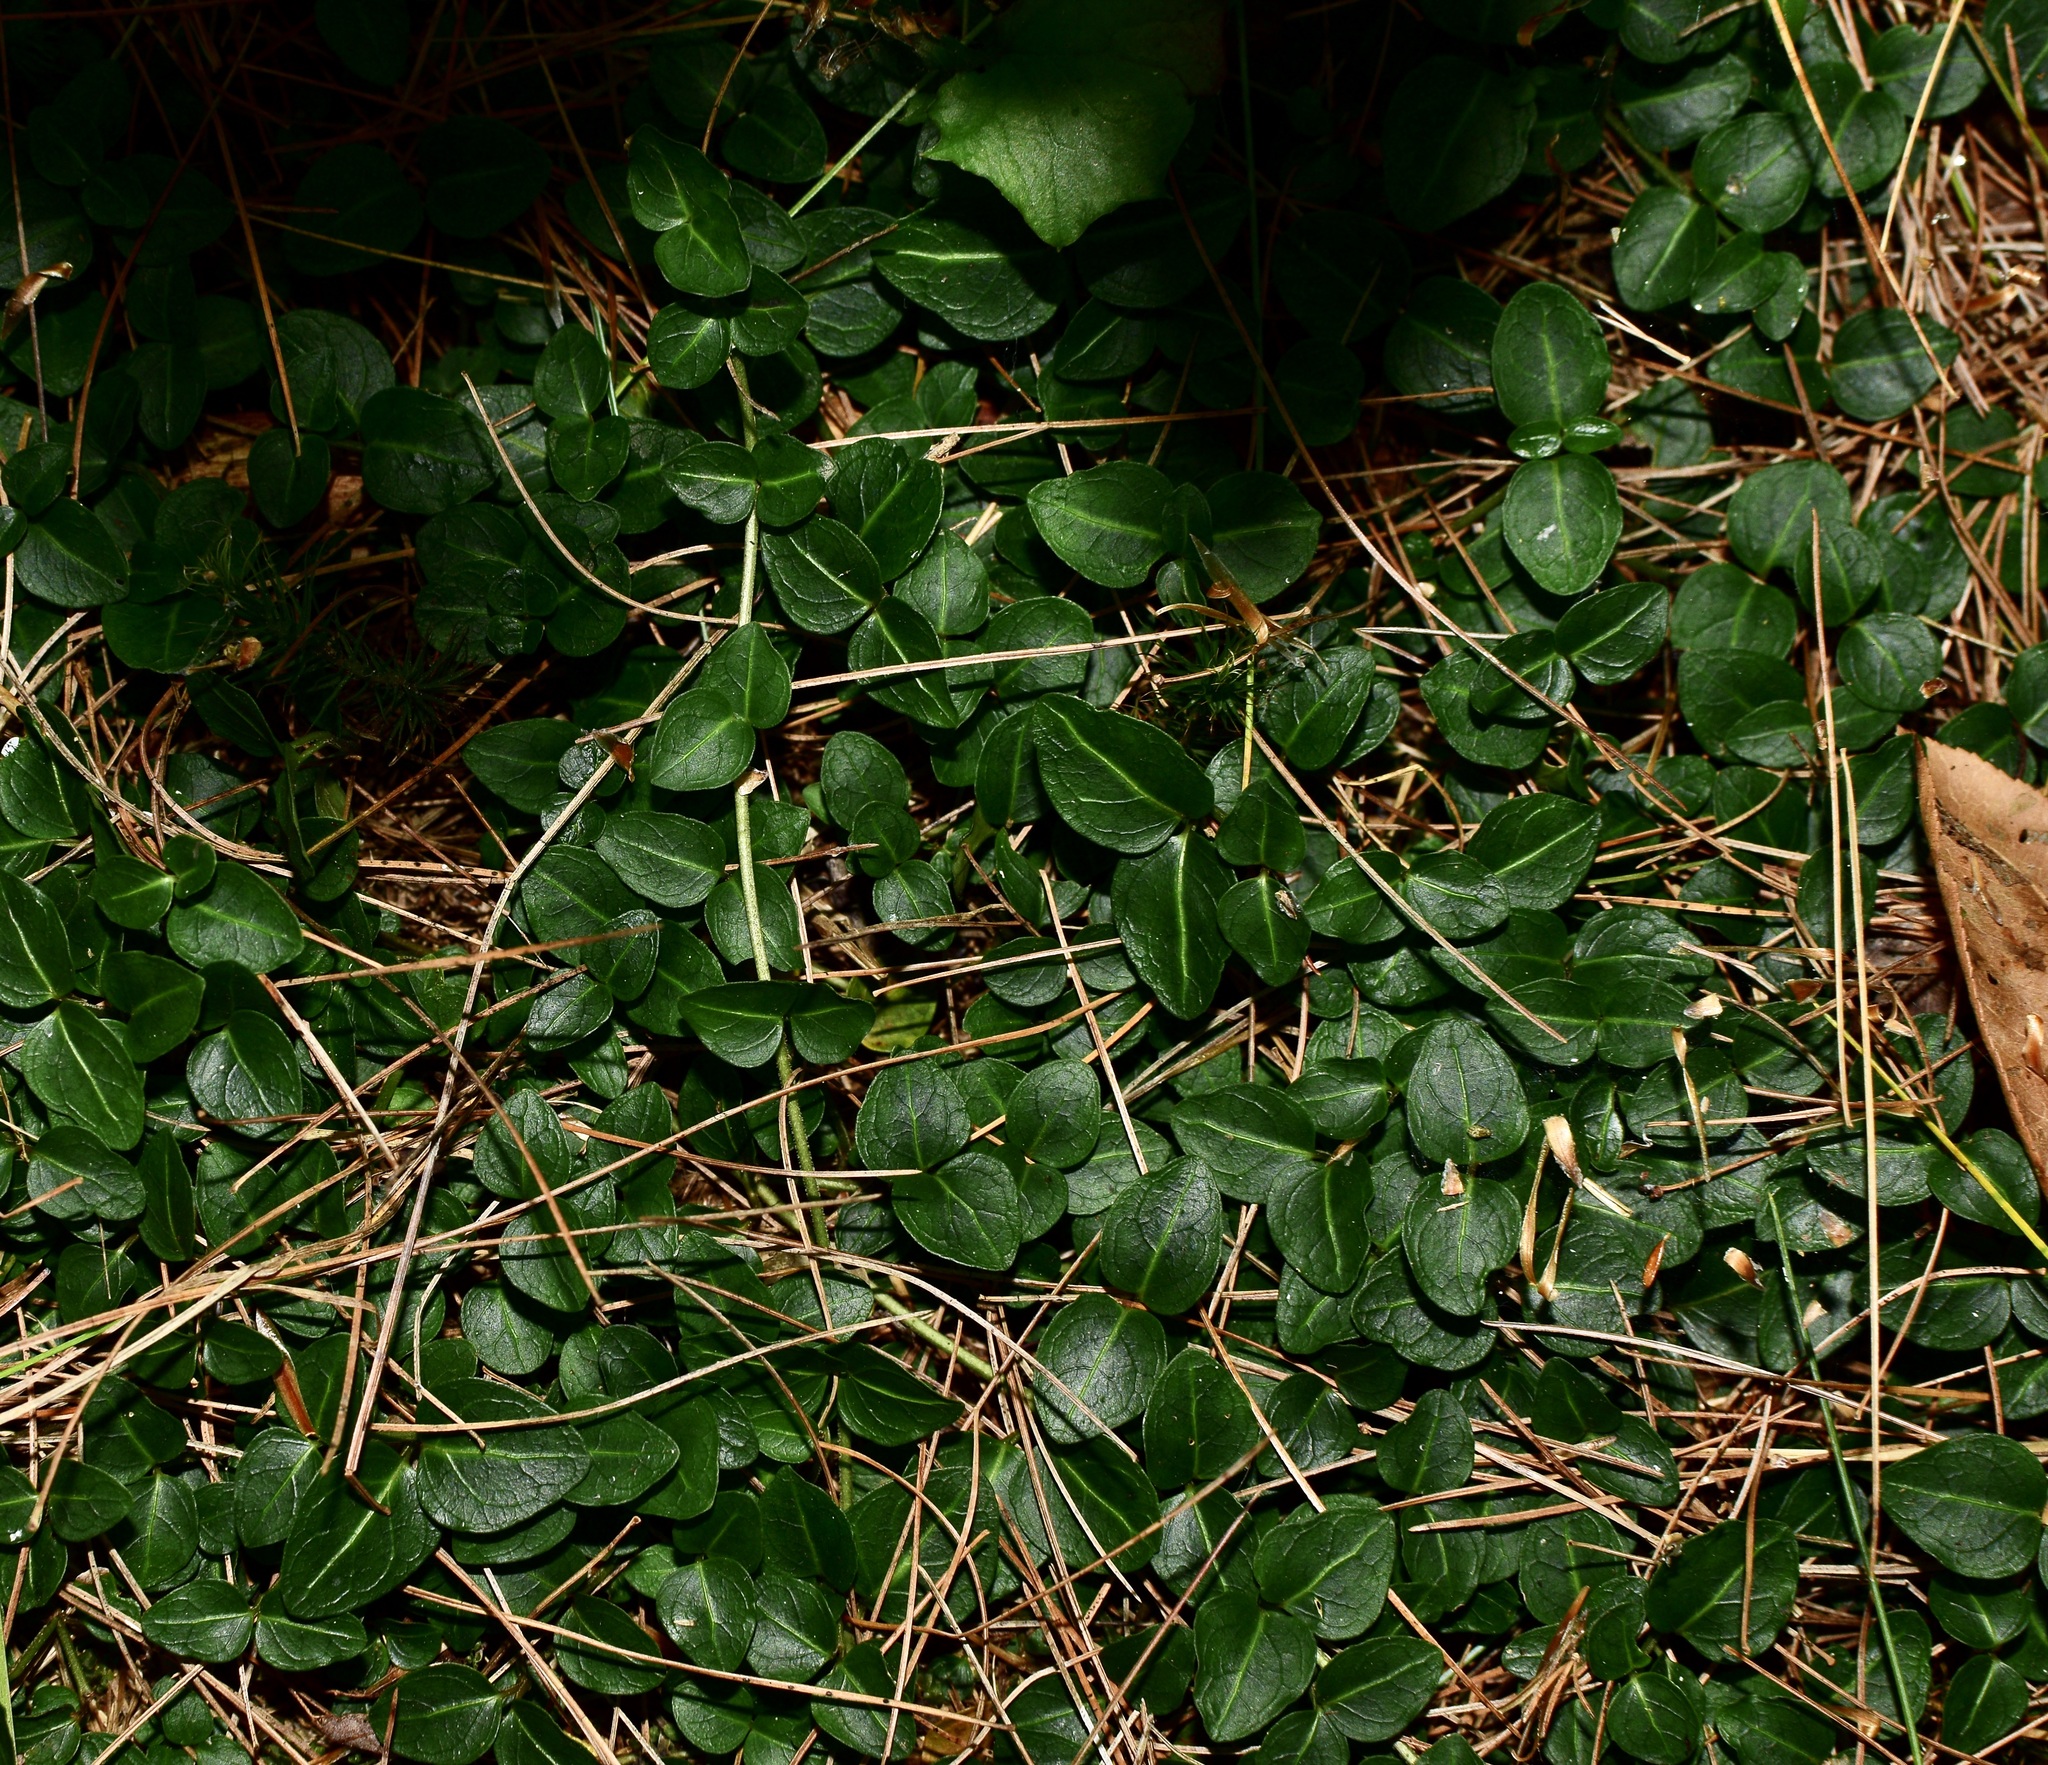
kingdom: Plantae
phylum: Tracheophyta
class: Magnoliopsida
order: Gentianales
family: Rubiaceae
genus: Mitchella
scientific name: Mitchella repens
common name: Partridge-berry
